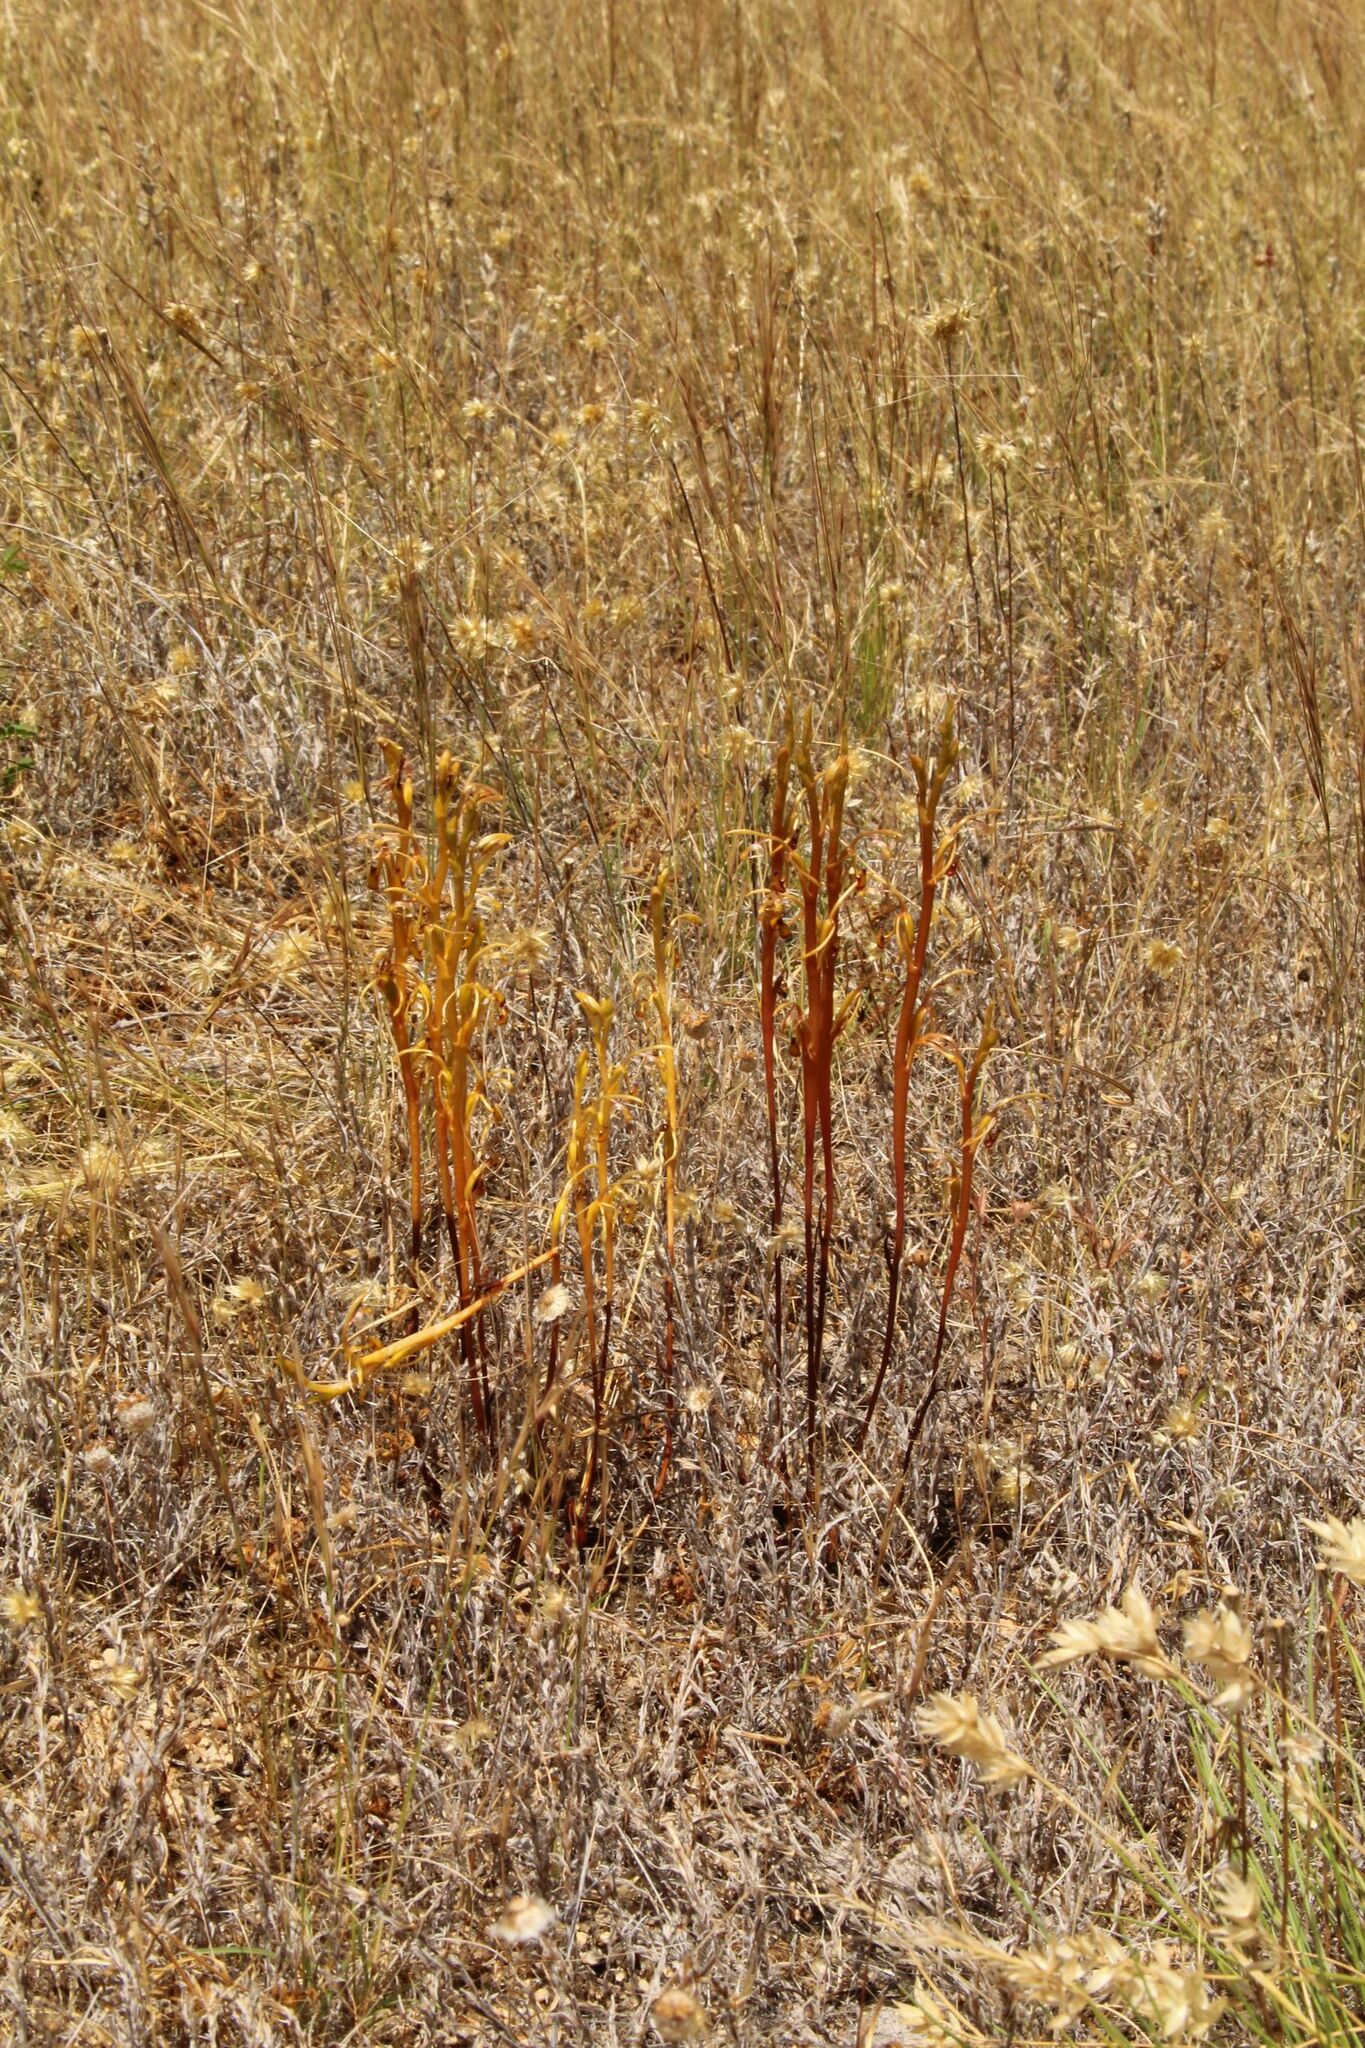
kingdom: Plantae
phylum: Tracheophyta
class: Liliopsida
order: Asparagales
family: Orchidaceae
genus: Spiculaea
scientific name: Spiculaea ciliata
